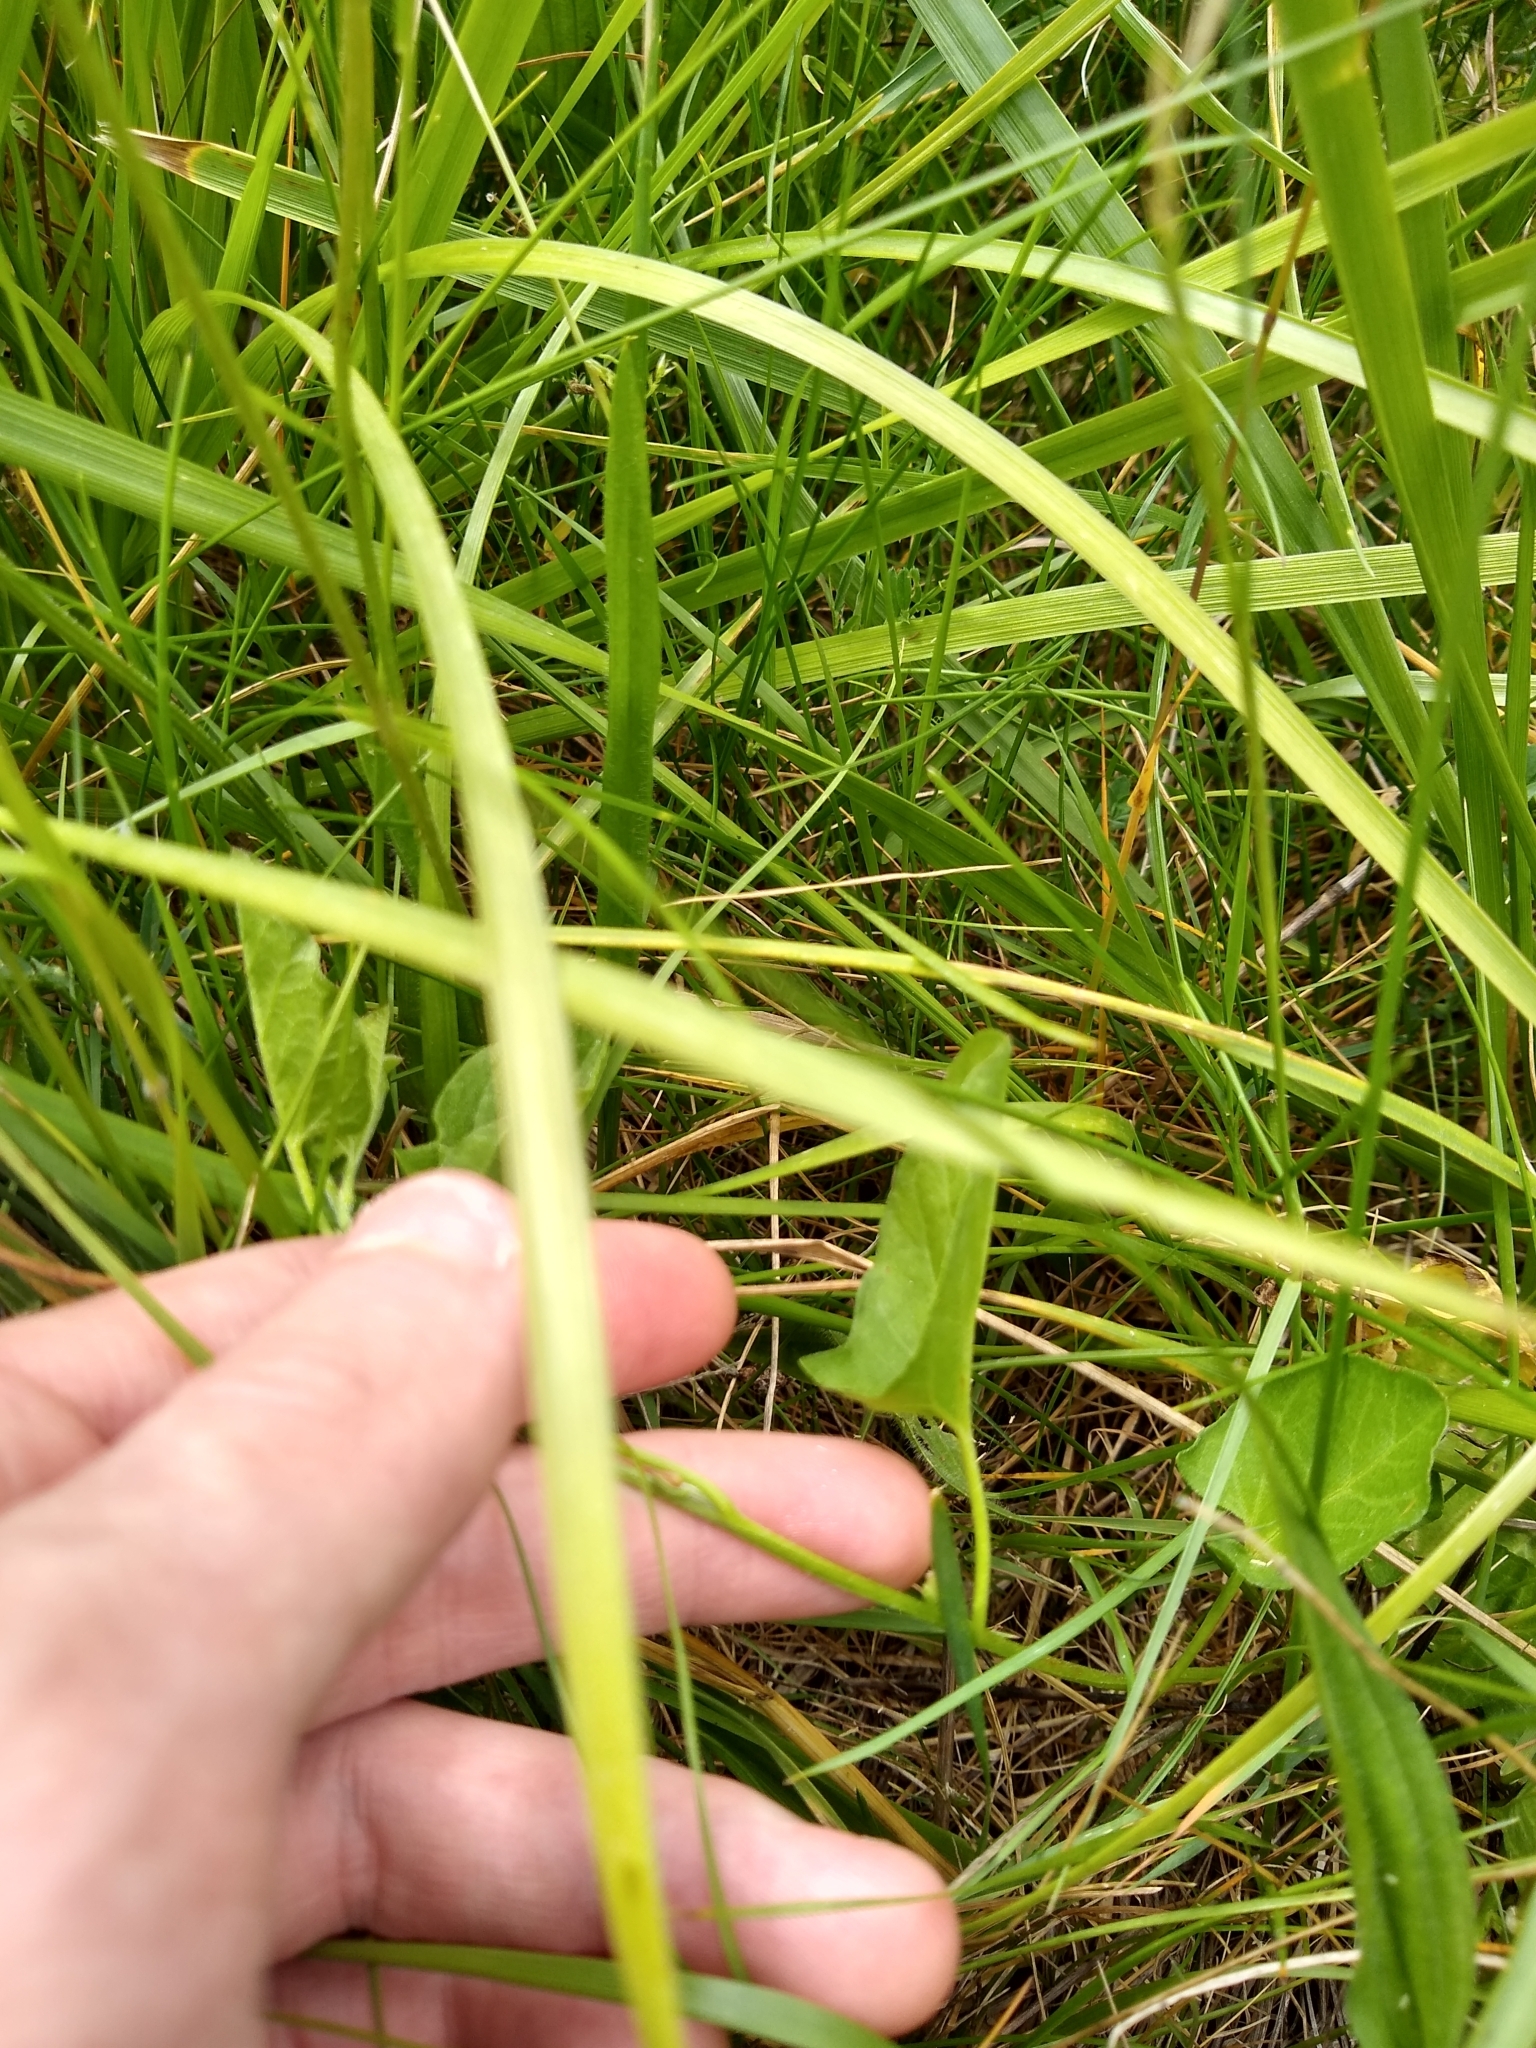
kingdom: Plantae
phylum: Tracheophyta
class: Magnoliopsida
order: Solanales
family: Convolvulaceae
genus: Convolvulus
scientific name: Convolvulus arvensis
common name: Field bindweed
